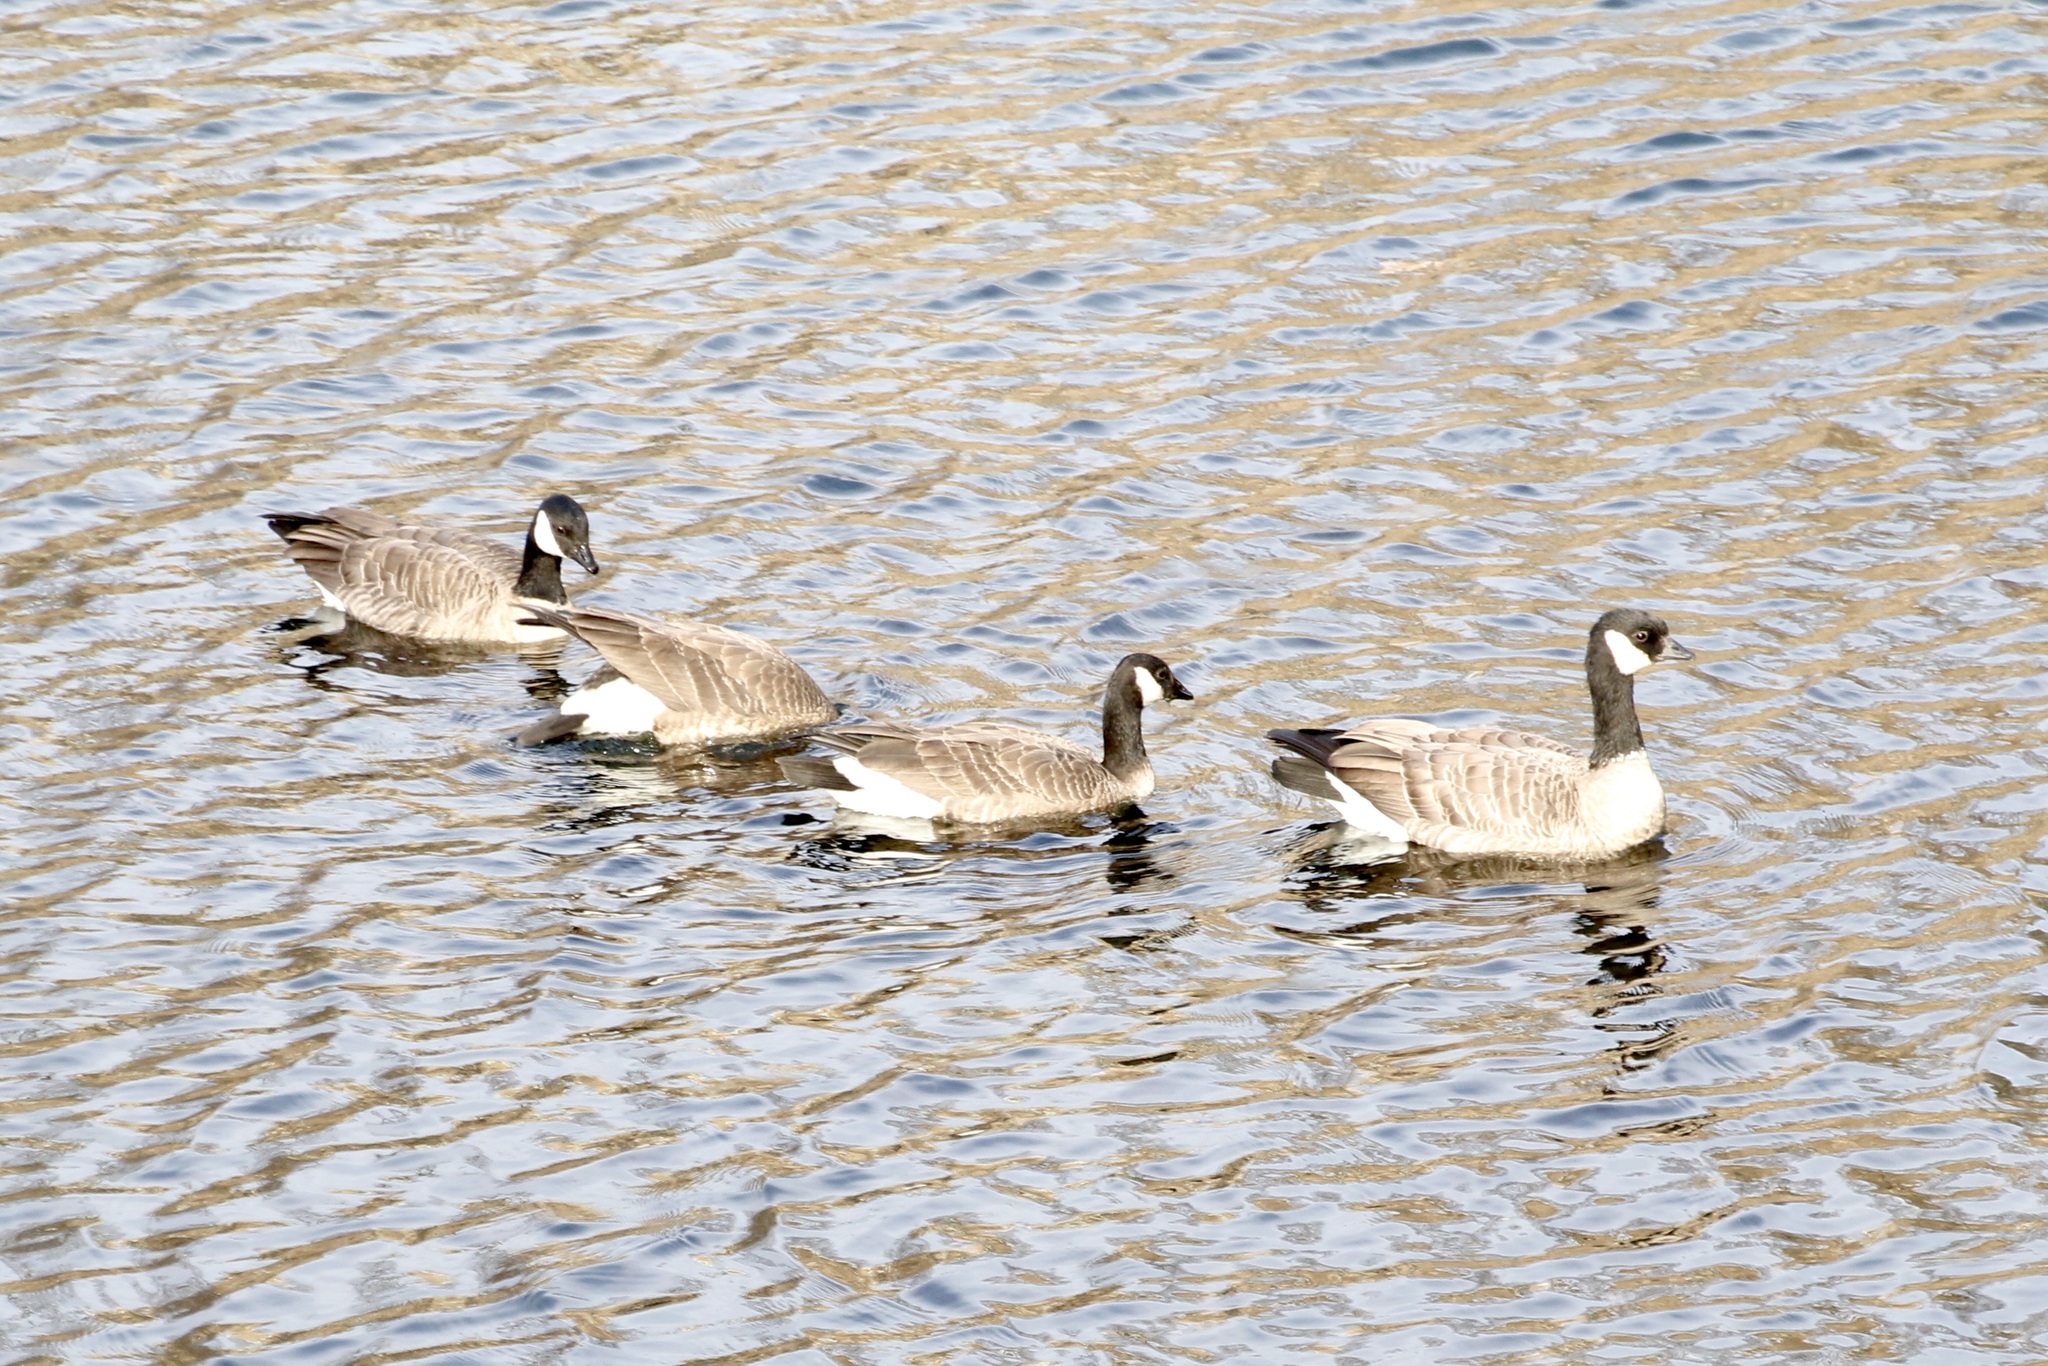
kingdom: Animalia
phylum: Chordata
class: Aves
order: Anseriformes
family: Anatidae
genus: Branta
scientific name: Branta hutchinsii
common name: Cackling goose
